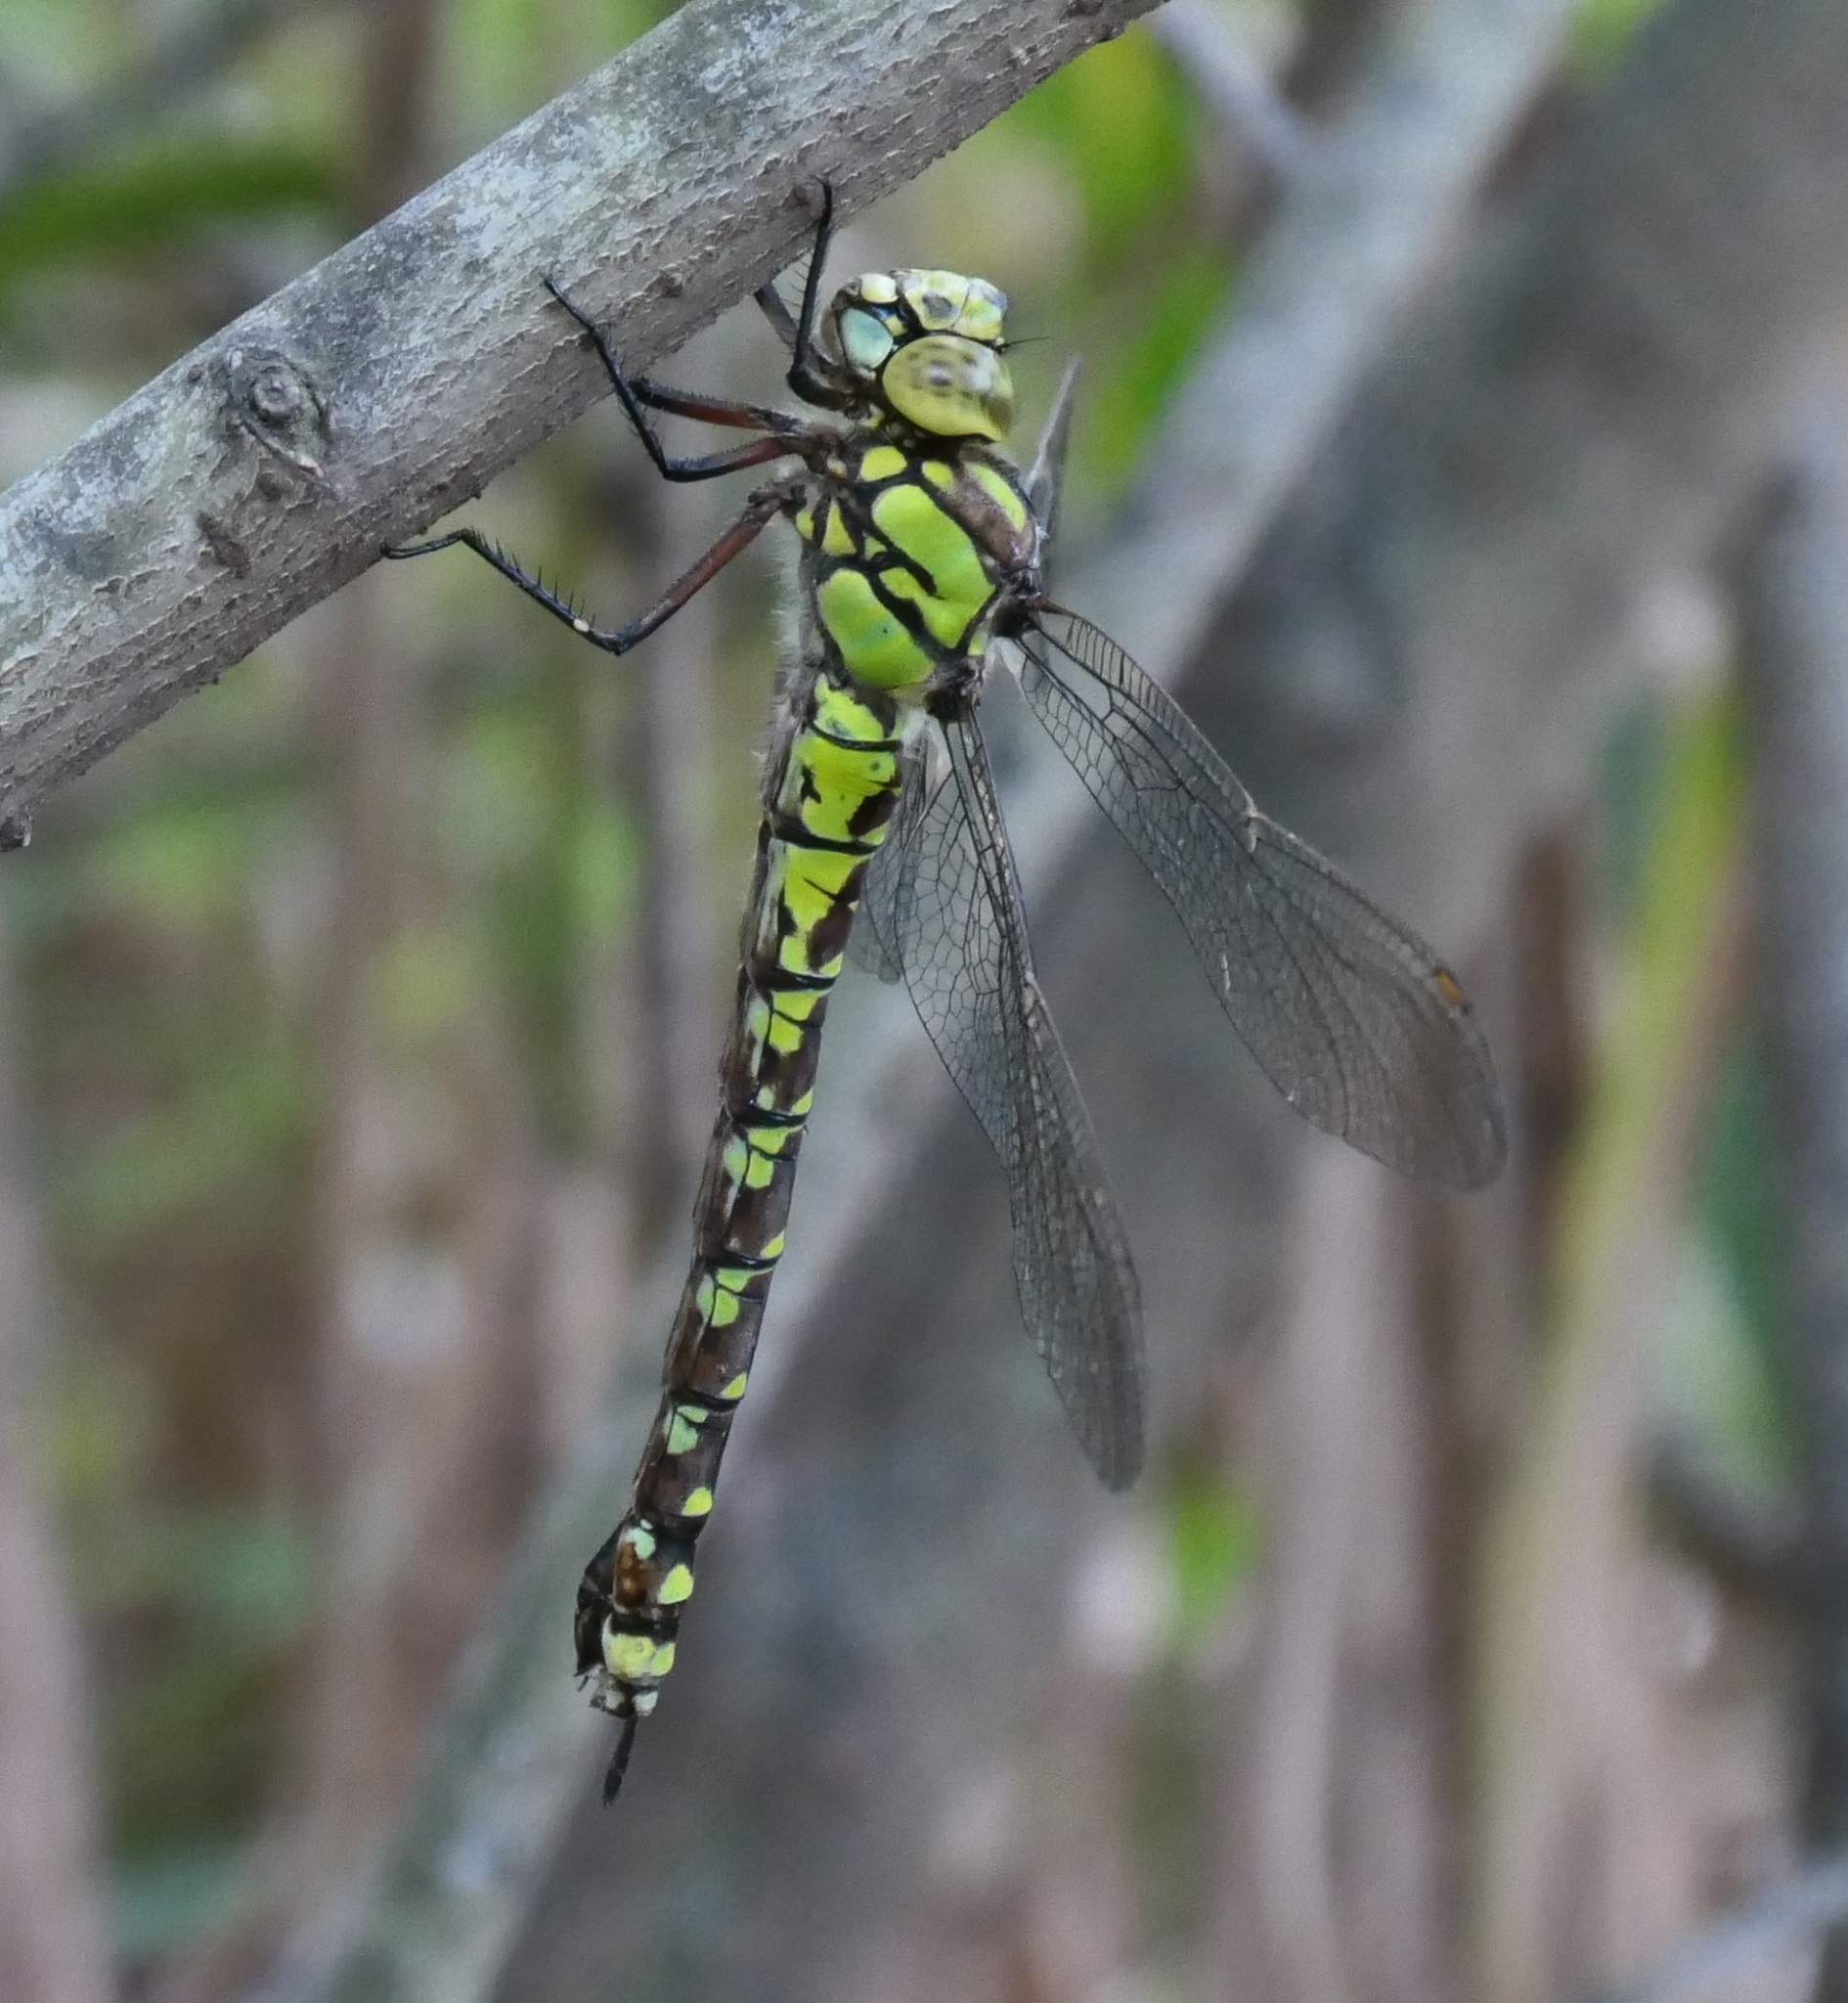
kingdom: Animalia
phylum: Arthropoda
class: Insecta
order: Odonata
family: Aeshnidae
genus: Aeshna
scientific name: Aeshna cyanea
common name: Southern hawker
